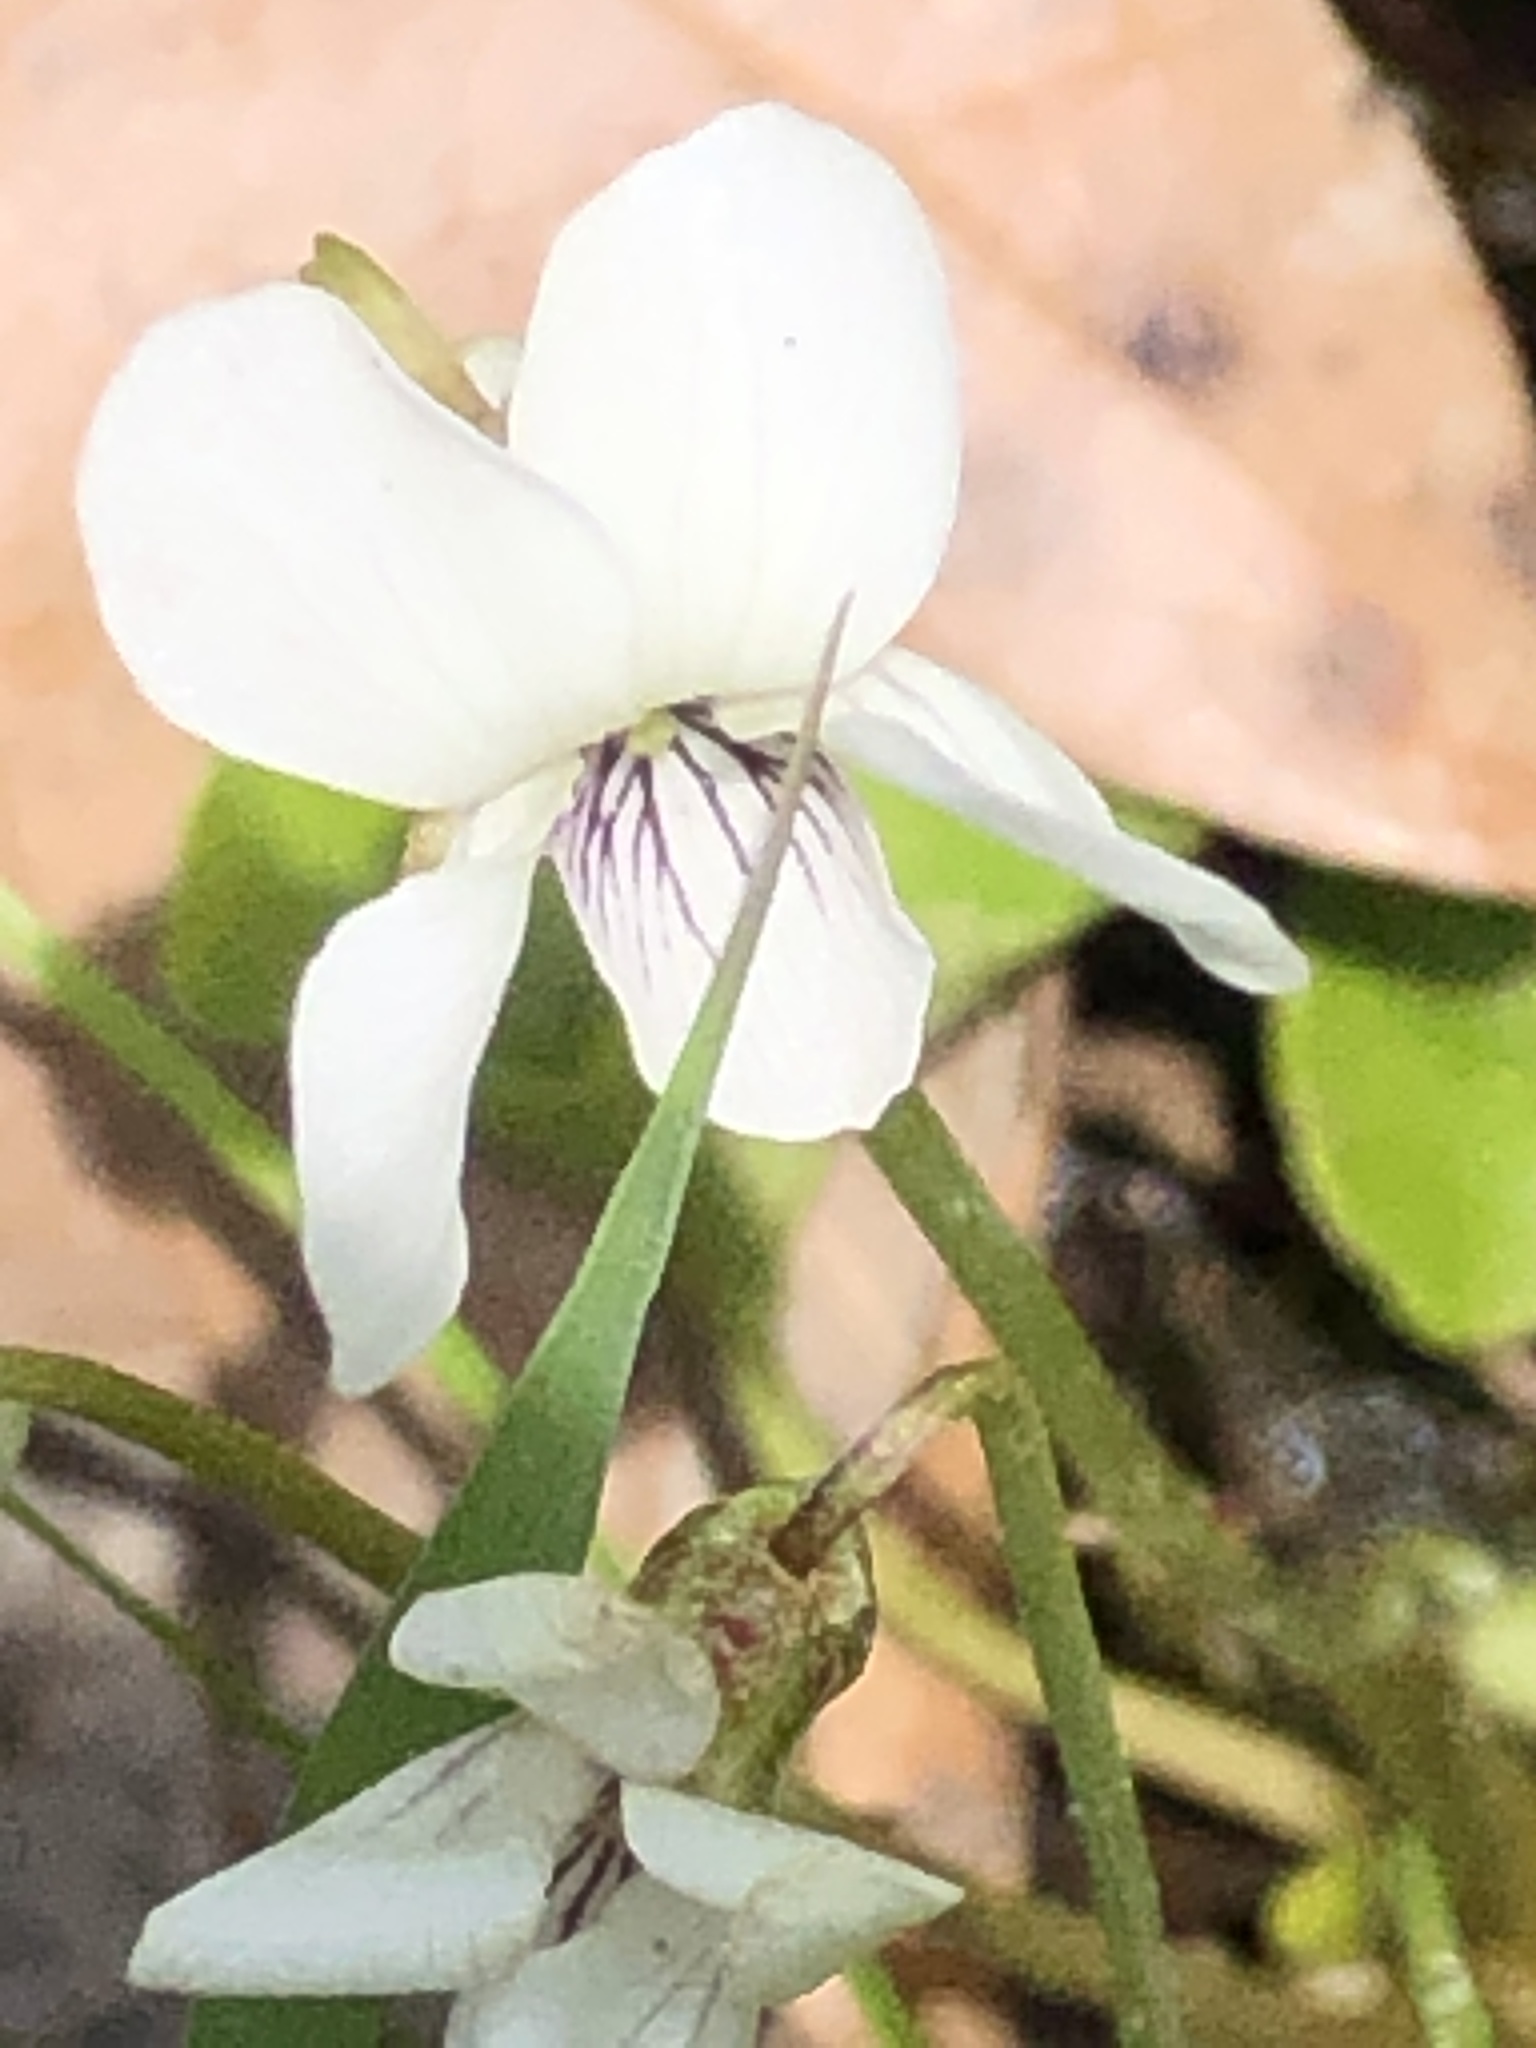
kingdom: Plantae
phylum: Tracheophyta
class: Magnoliopsida
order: Malpighiales
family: Violaceae
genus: Viola
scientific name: Viola minuscula
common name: Northern white violet
